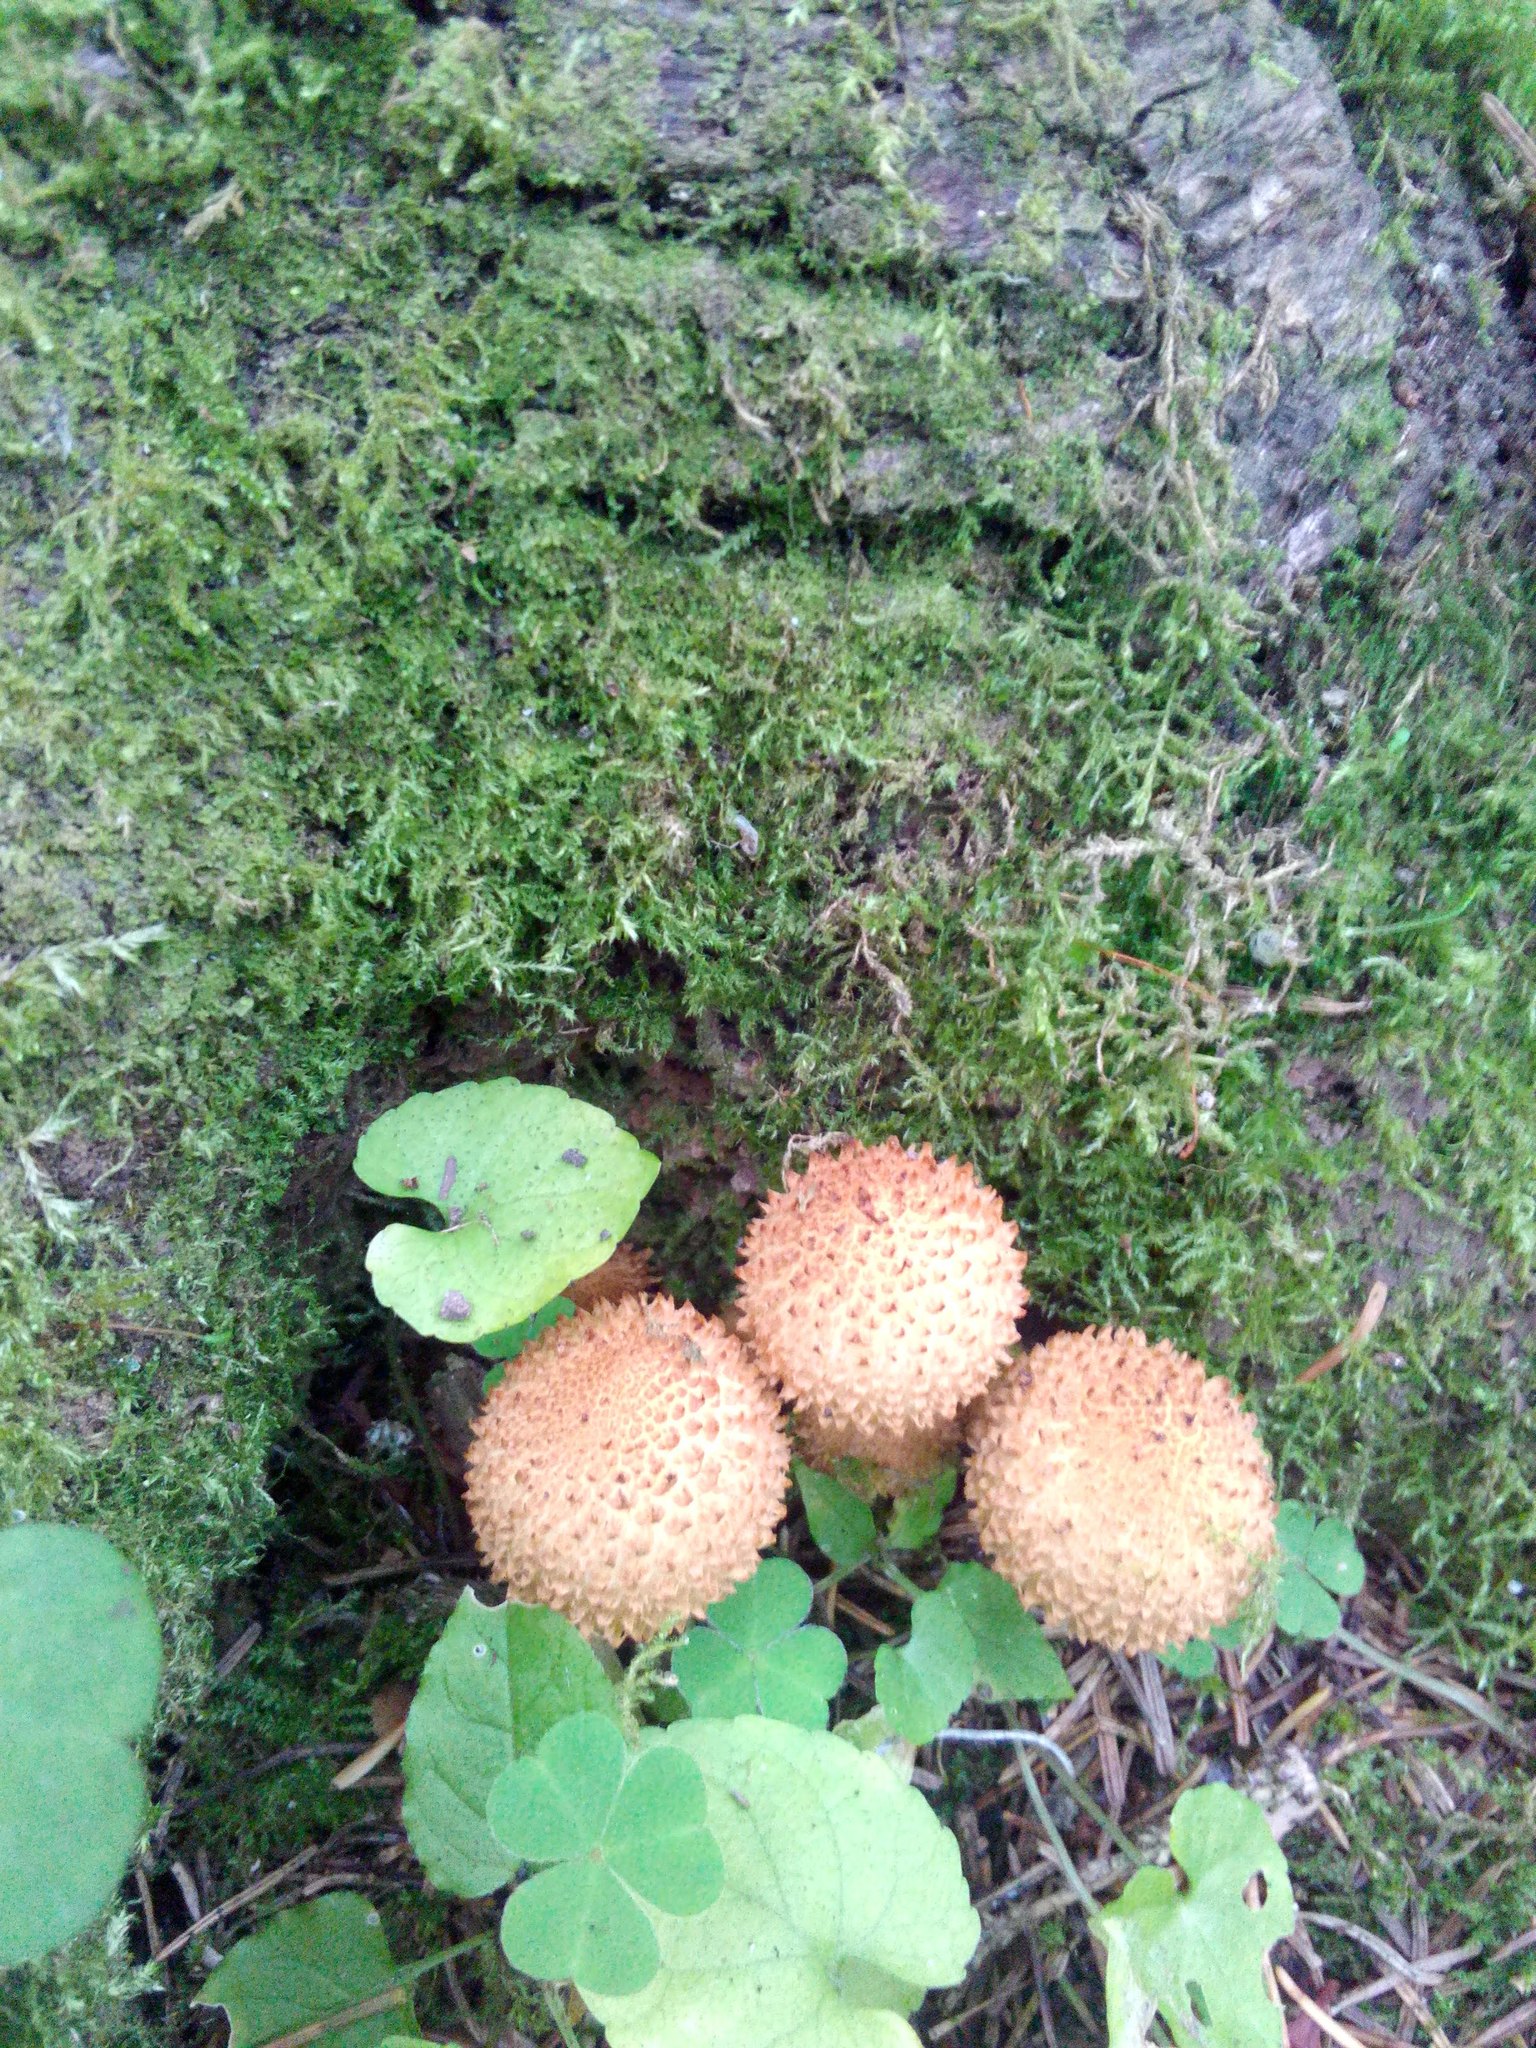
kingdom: Fungi
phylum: Basidiomycota
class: Agaricomycetes
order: Agaricales
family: Strophariaceae
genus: Pholiota
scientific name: Pholiota squarrosa
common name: Shaggy pholiota
